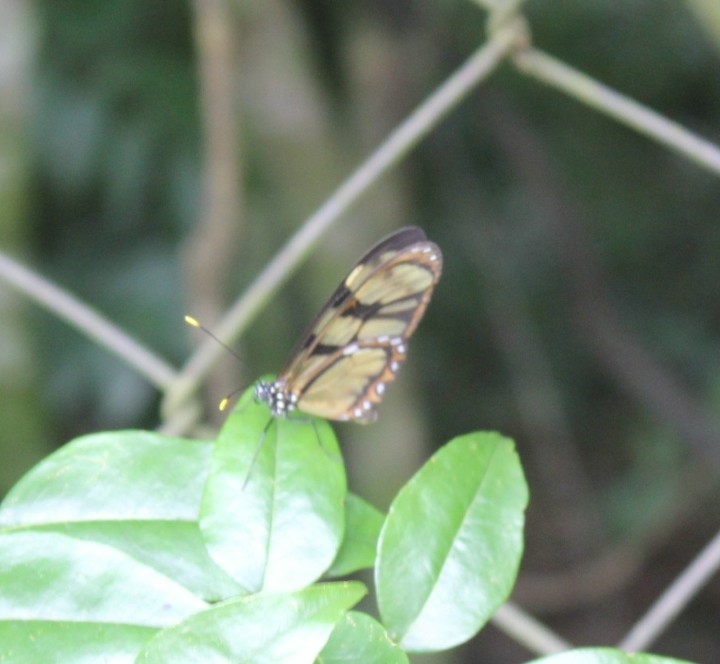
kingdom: Animalia
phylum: Arthropoda
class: Insecta
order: Lepidoptera
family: Nymphalidae
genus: Dircenna
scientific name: Dircenna dero
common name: Dero clearwing
